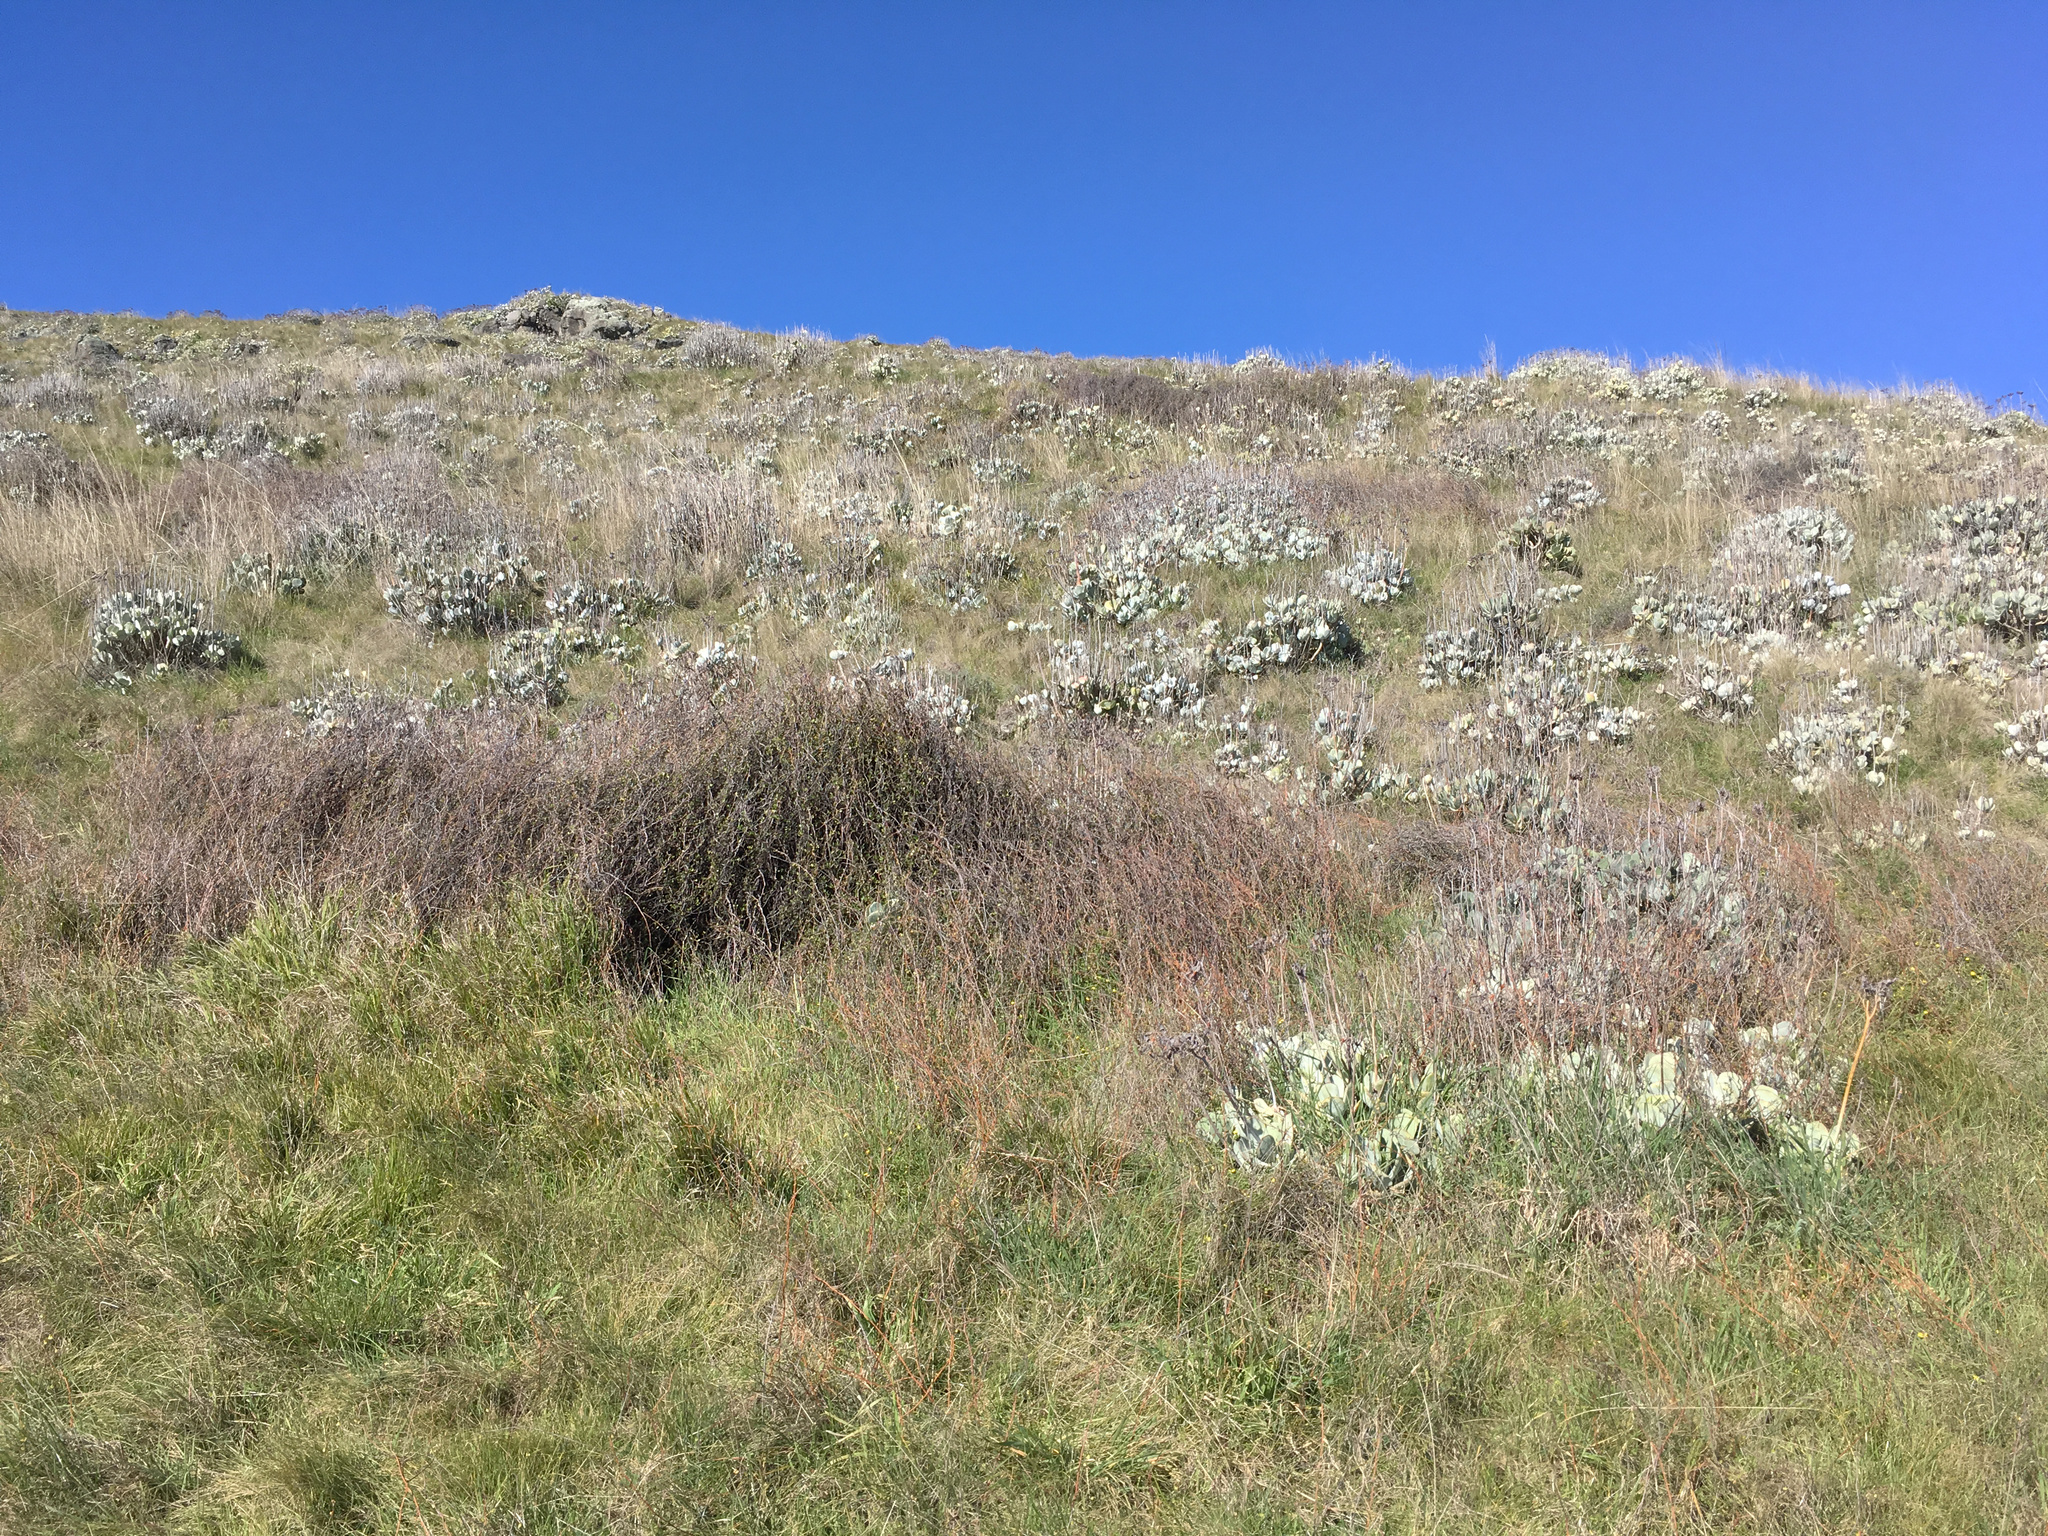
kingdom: Plantae
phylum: Tracheophyta
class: Magnoliopsida
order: Saxifragales
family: Crassulaceae
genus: Cotyledon
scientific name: Cotyledon orbiculata
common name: Pig's ear
